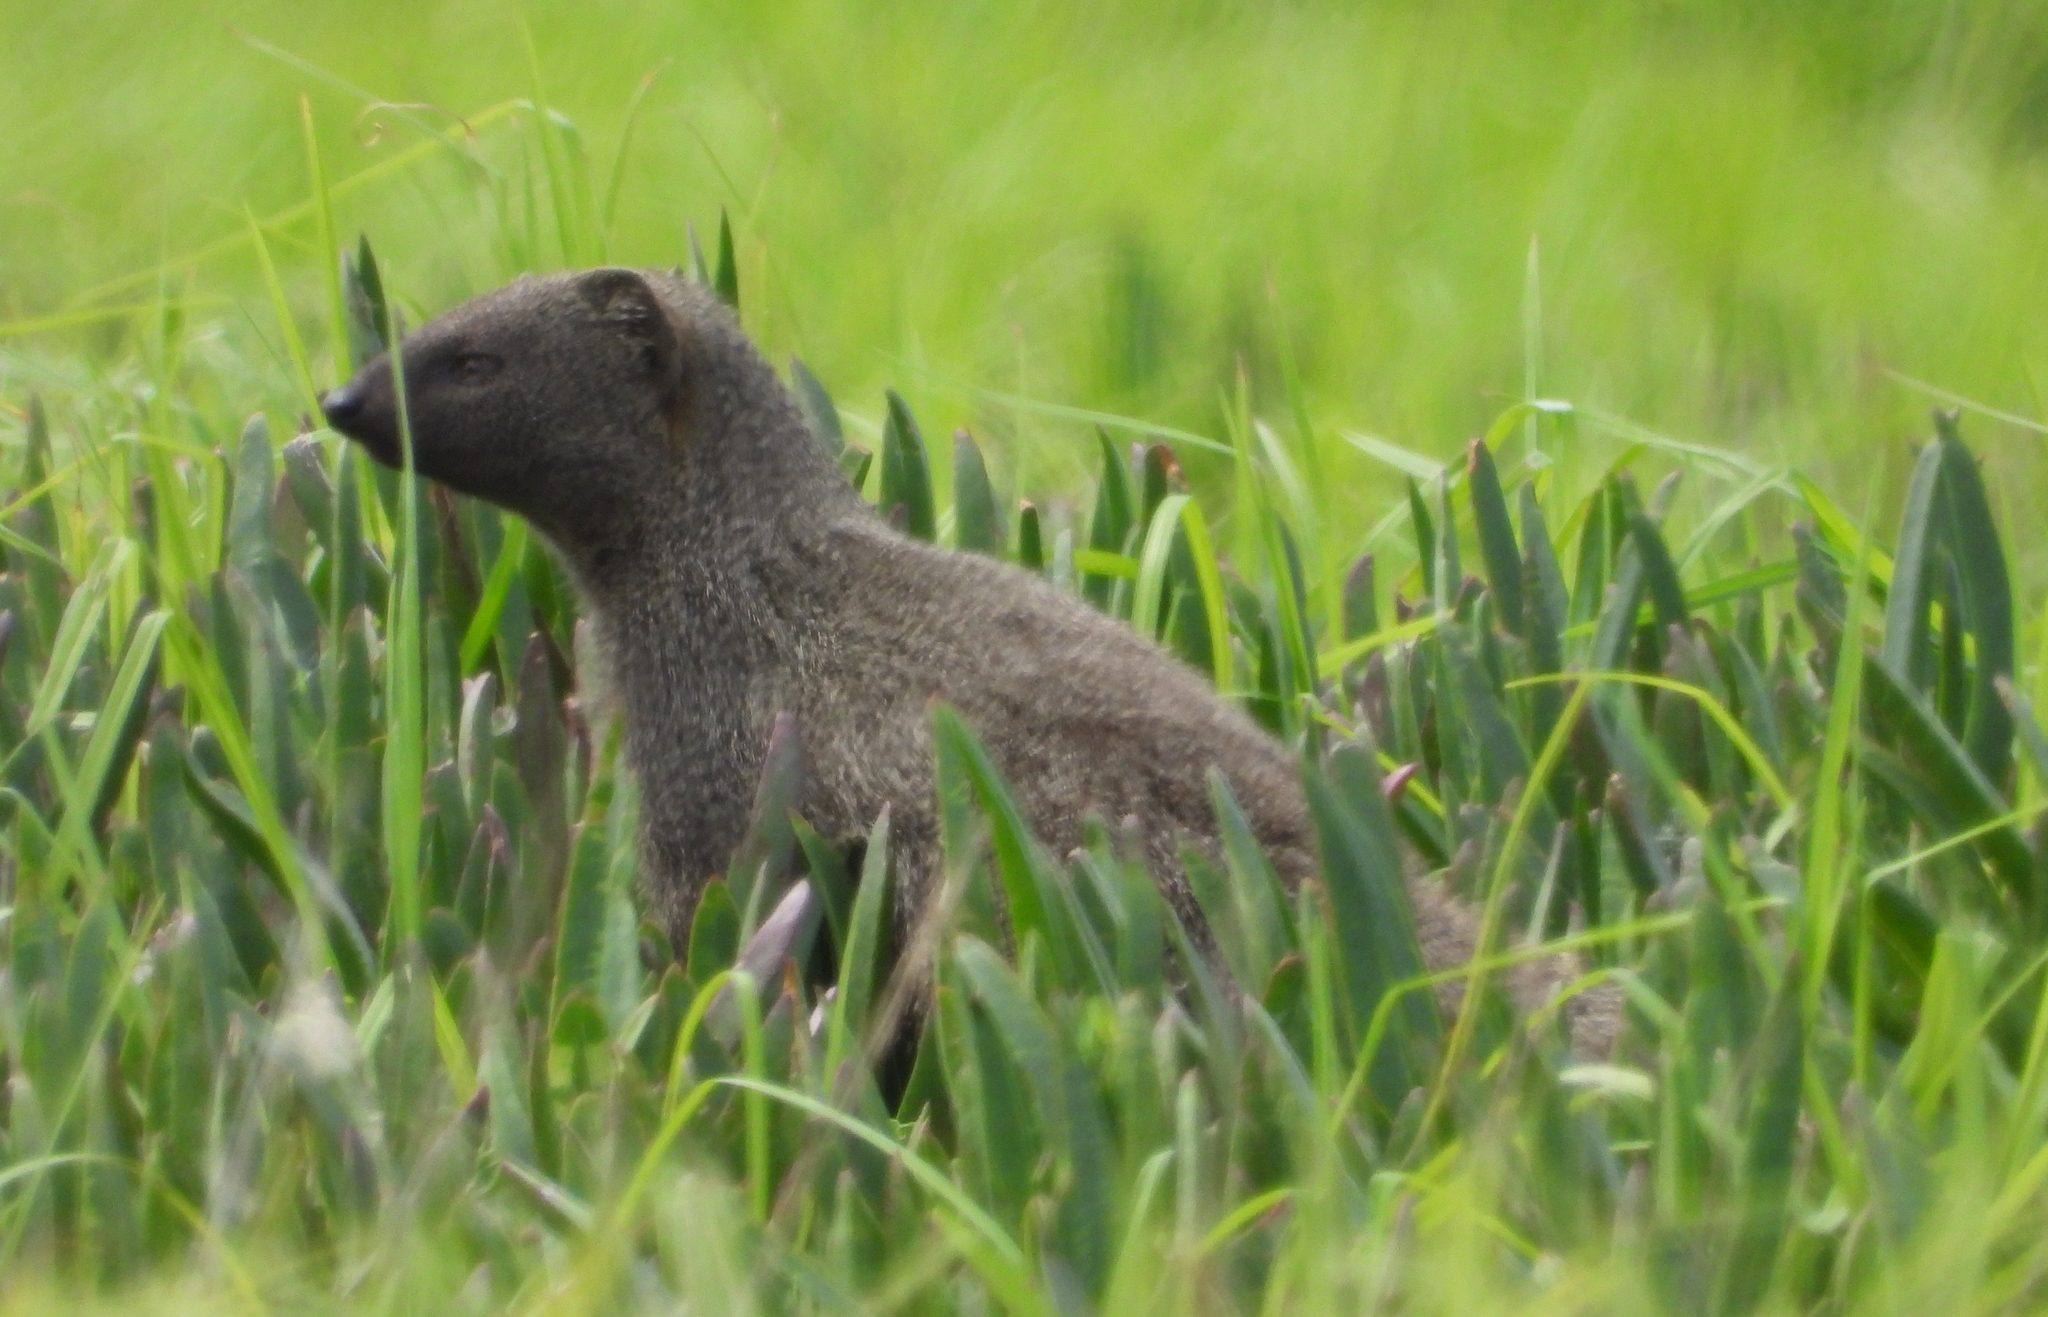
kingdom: Animalia
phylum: Chordata
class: Mammalia
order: Carnivora
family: Herpestidae
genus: Galerella
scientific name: Galerella pulverulenta
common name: Cape gray mongoose
